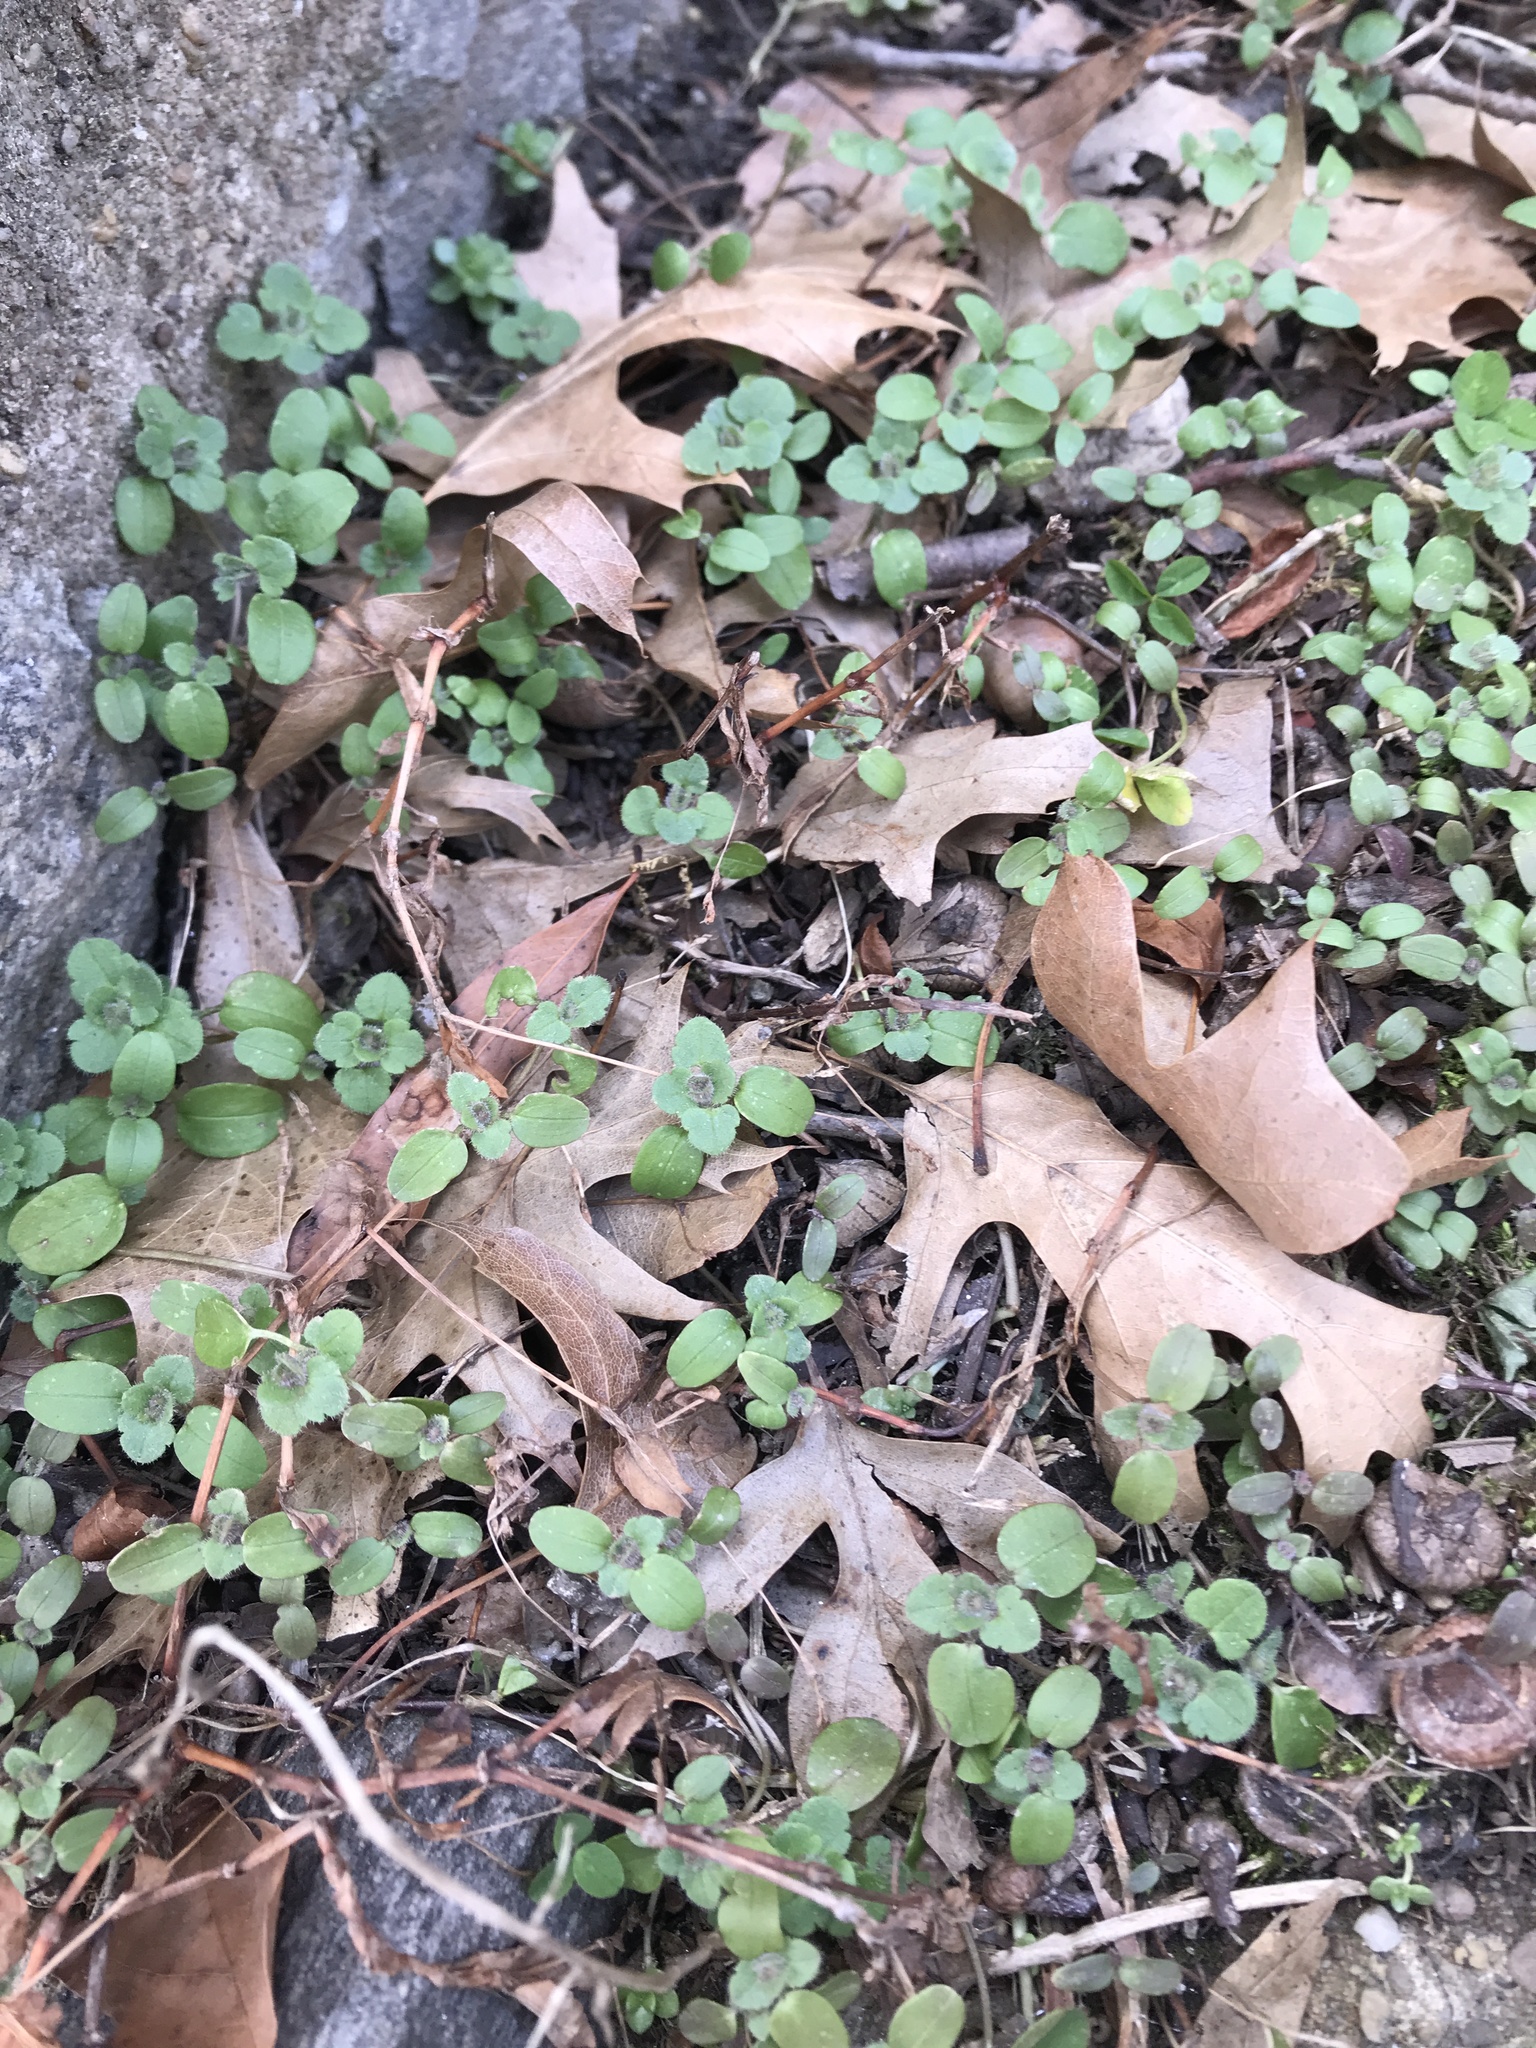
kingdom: Plantae
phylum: Tracheophyta
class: Magnoliopsida
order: Caryophyllales
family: Caryophyllaceae
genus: Stellaria
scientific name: Stellaria media
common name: Common chickweed
